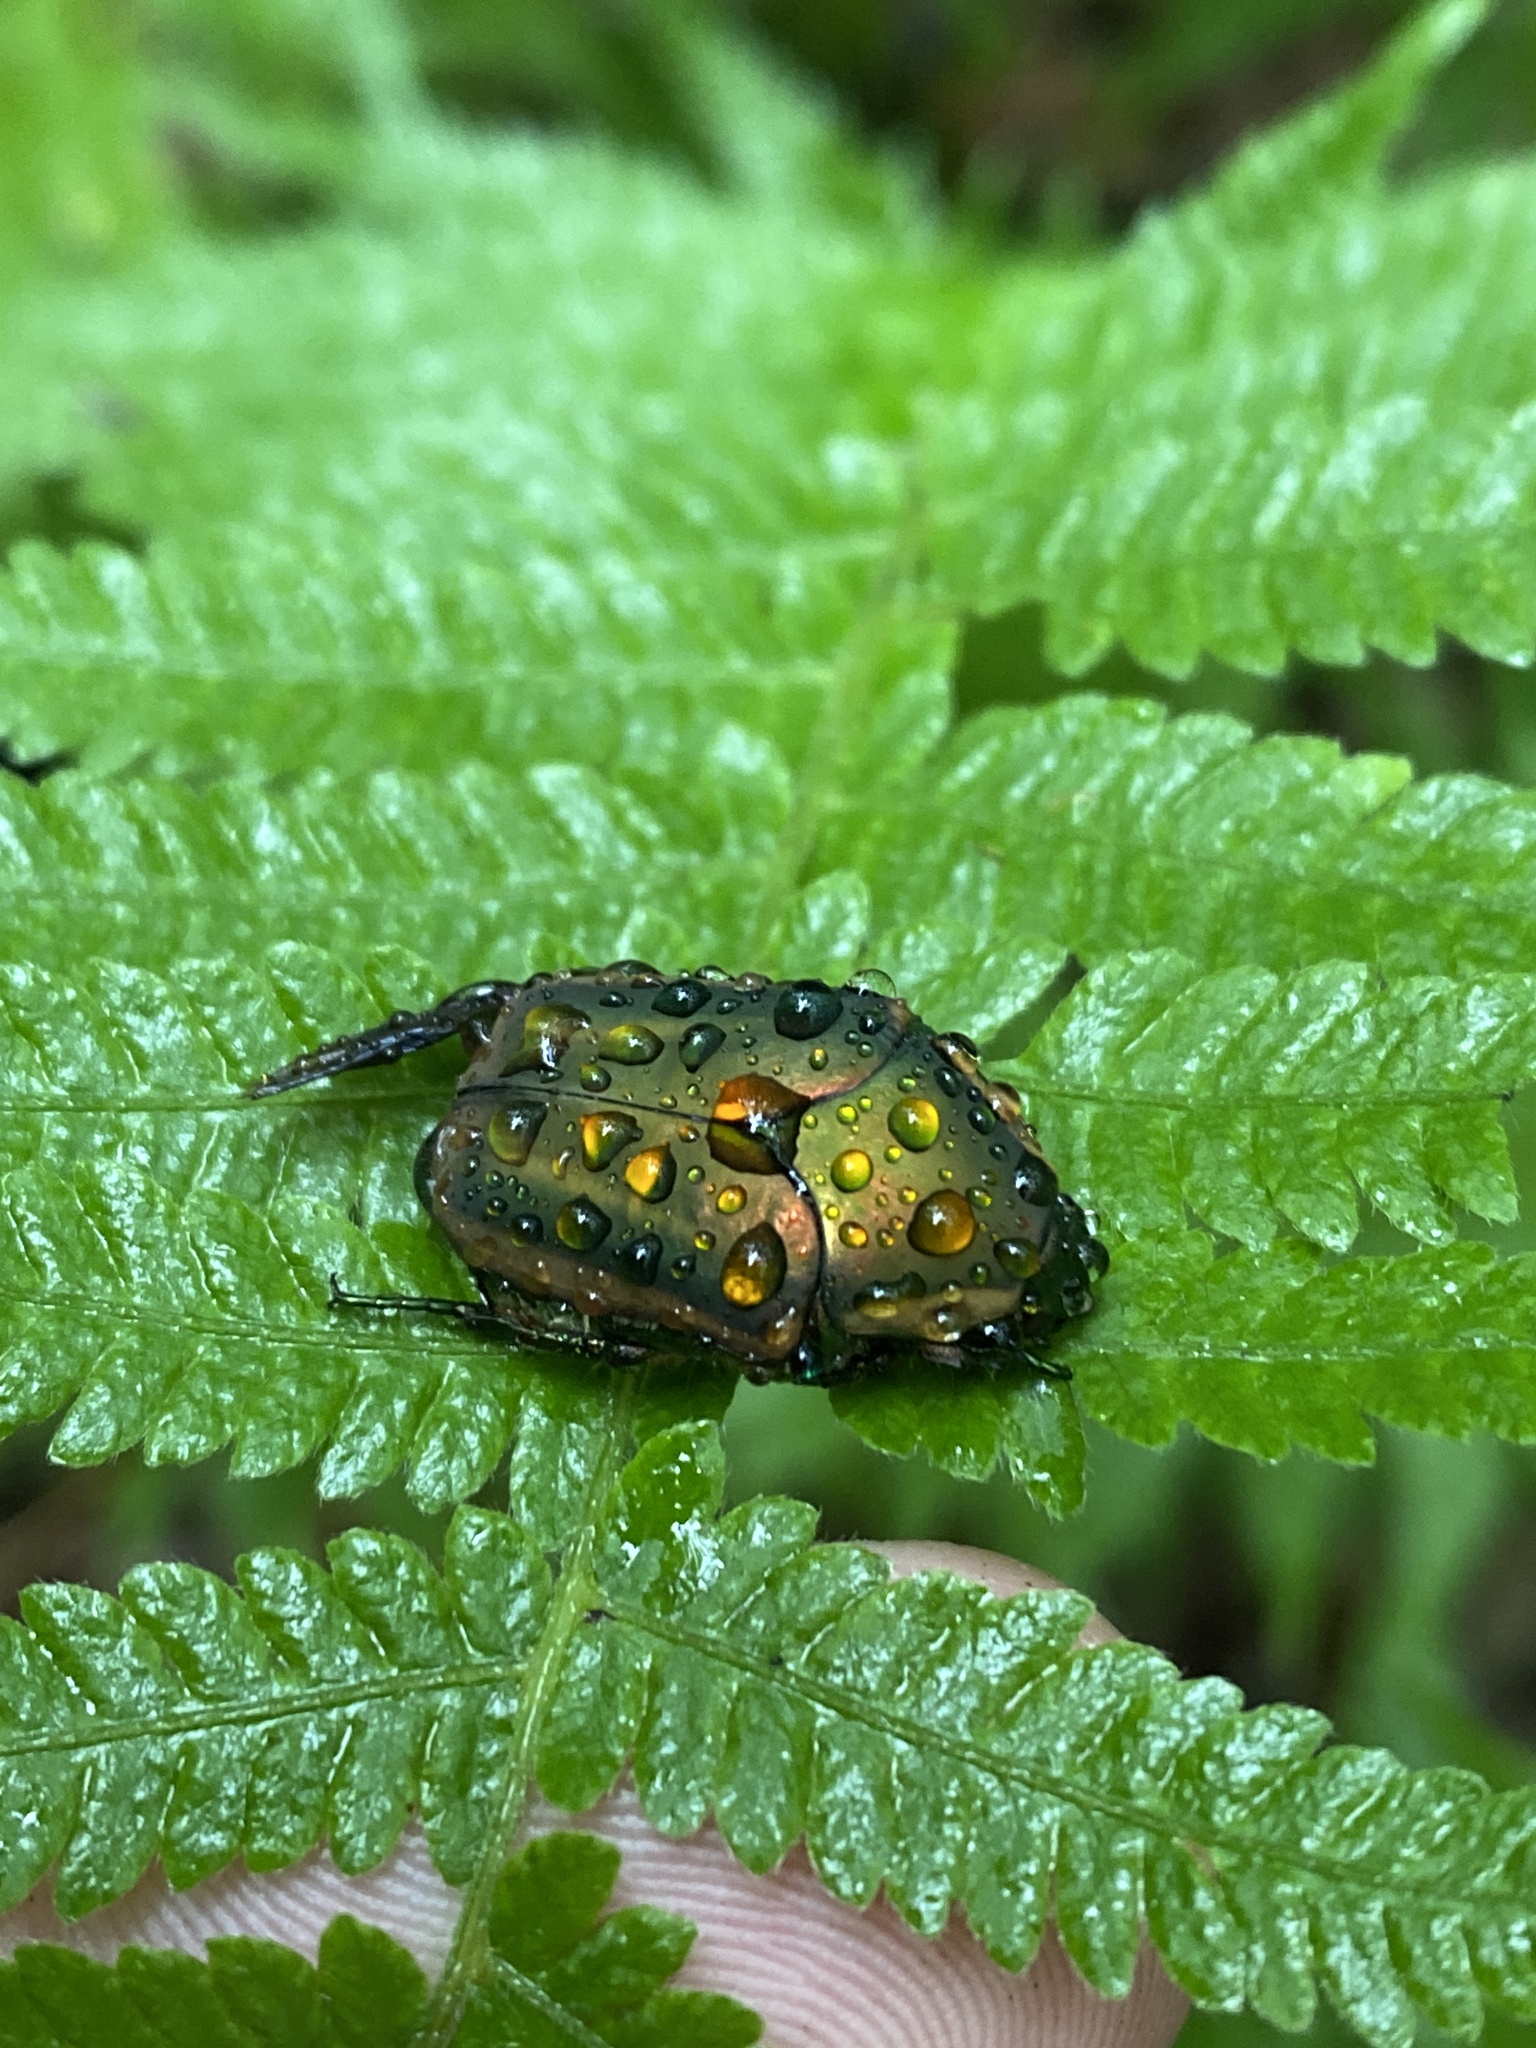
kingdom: Animalia
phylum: Arthropoda
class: Insecta
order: Coleoptera
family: Scarabaeidae
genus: Cotinis
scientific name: Cotinis nitida
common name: Common green june beetle
